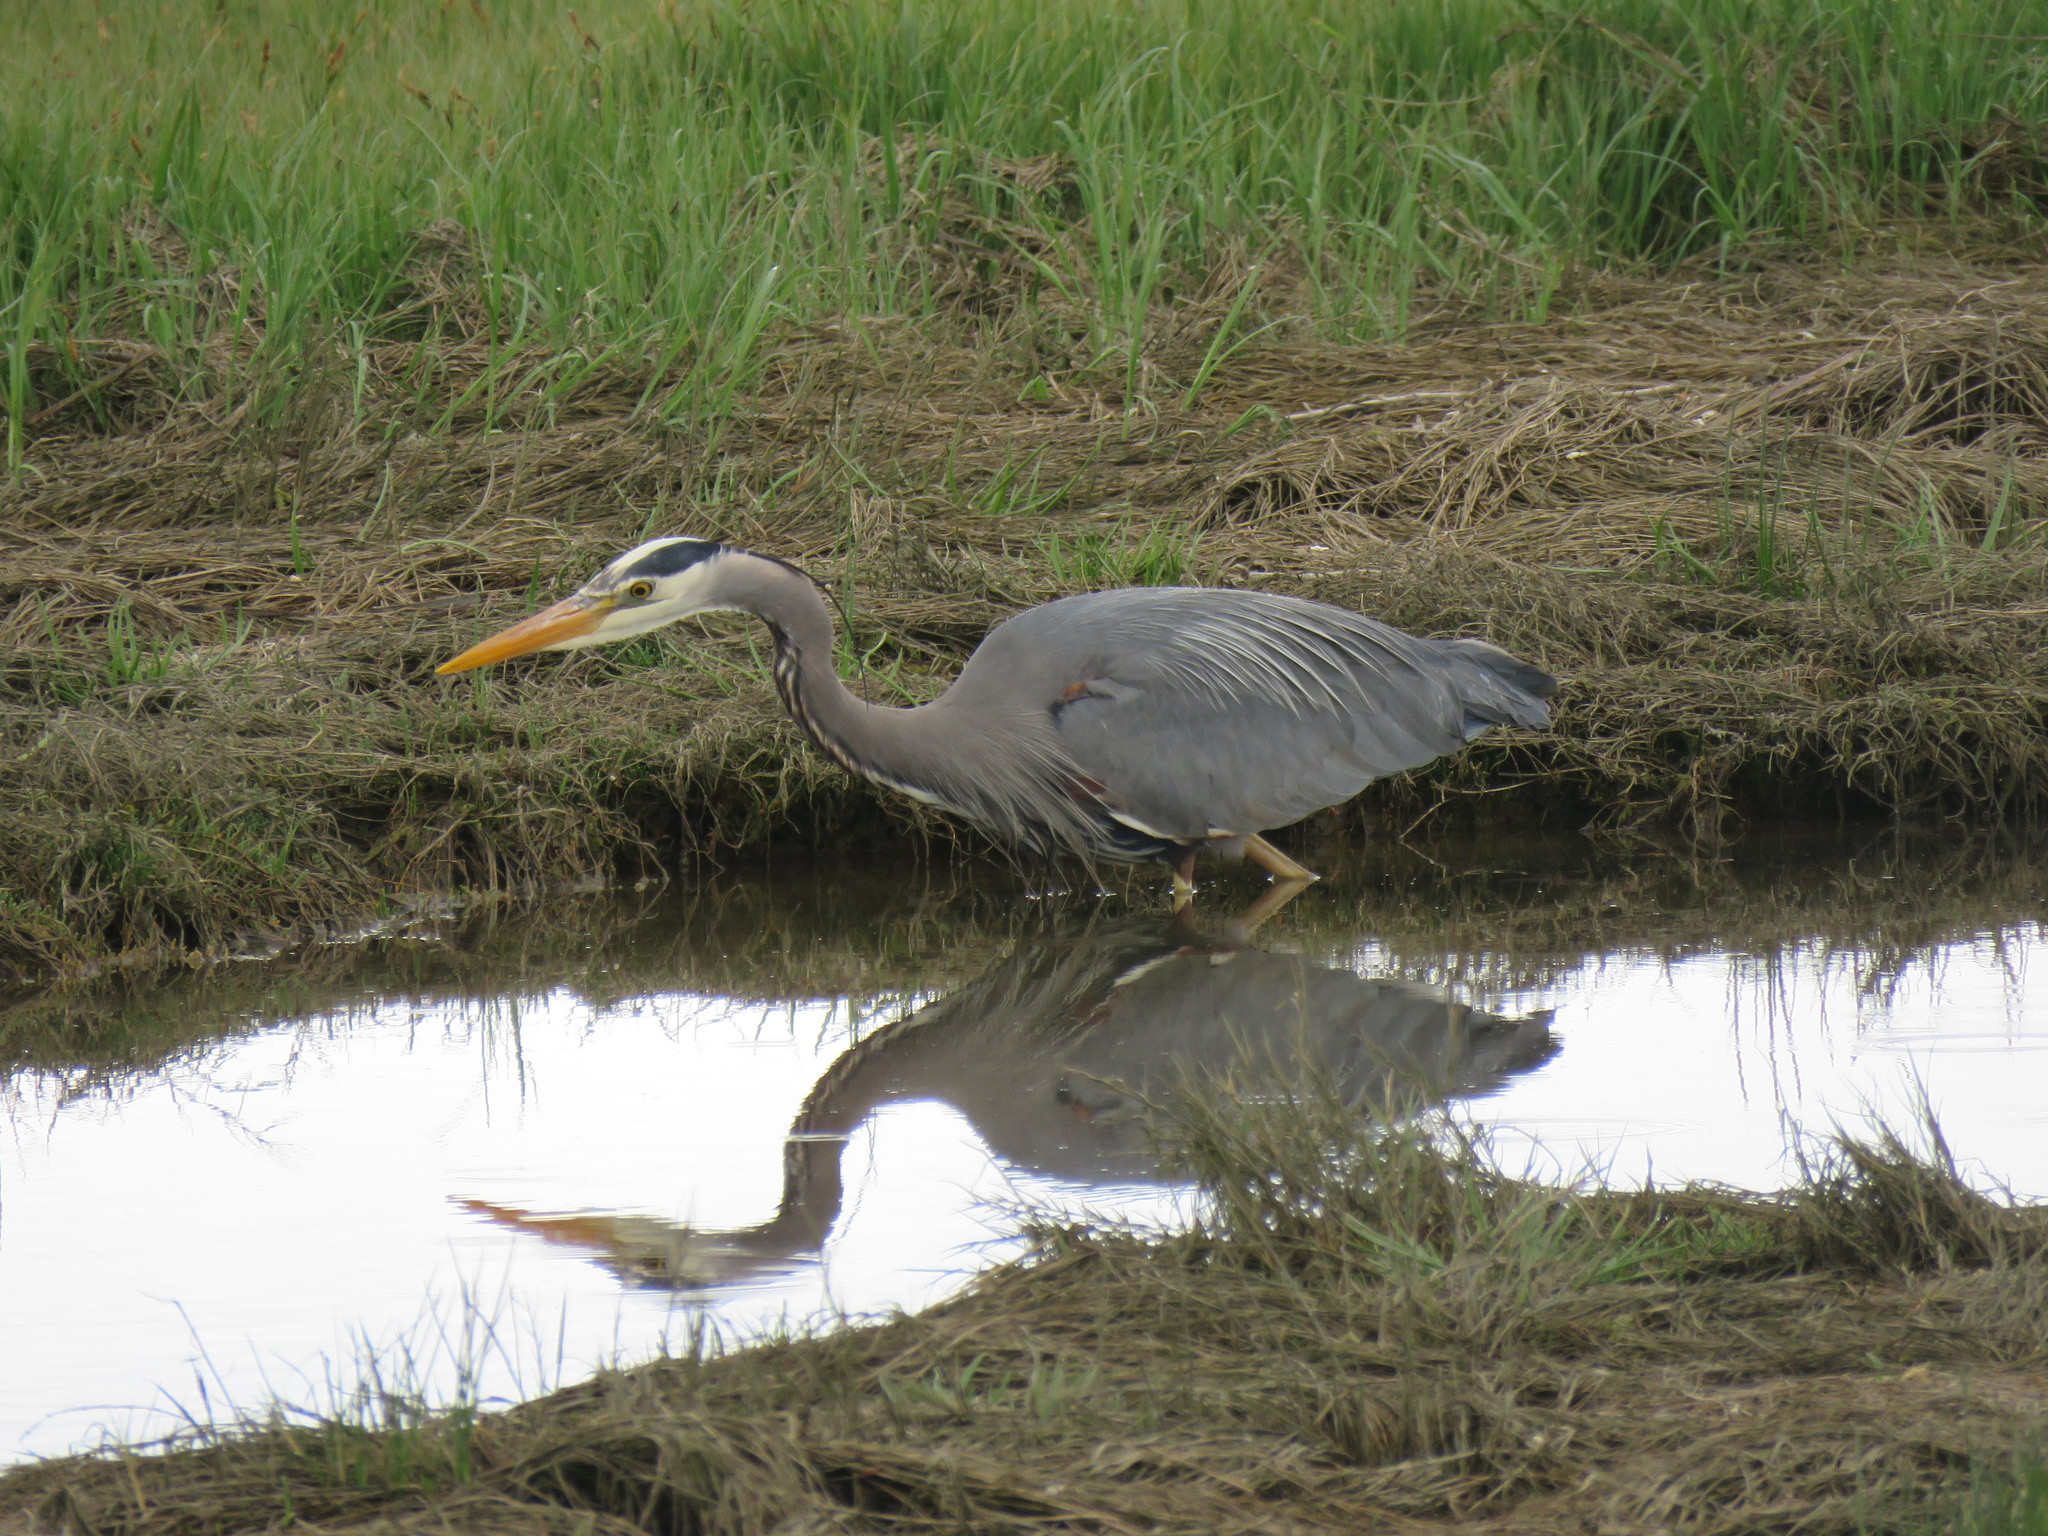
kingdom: Animalia
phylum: Chordata
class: Aves
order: Pelecaniformes
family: Ardeidae
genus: Ardea
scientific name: Ardea herodias
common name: Great blue heron
